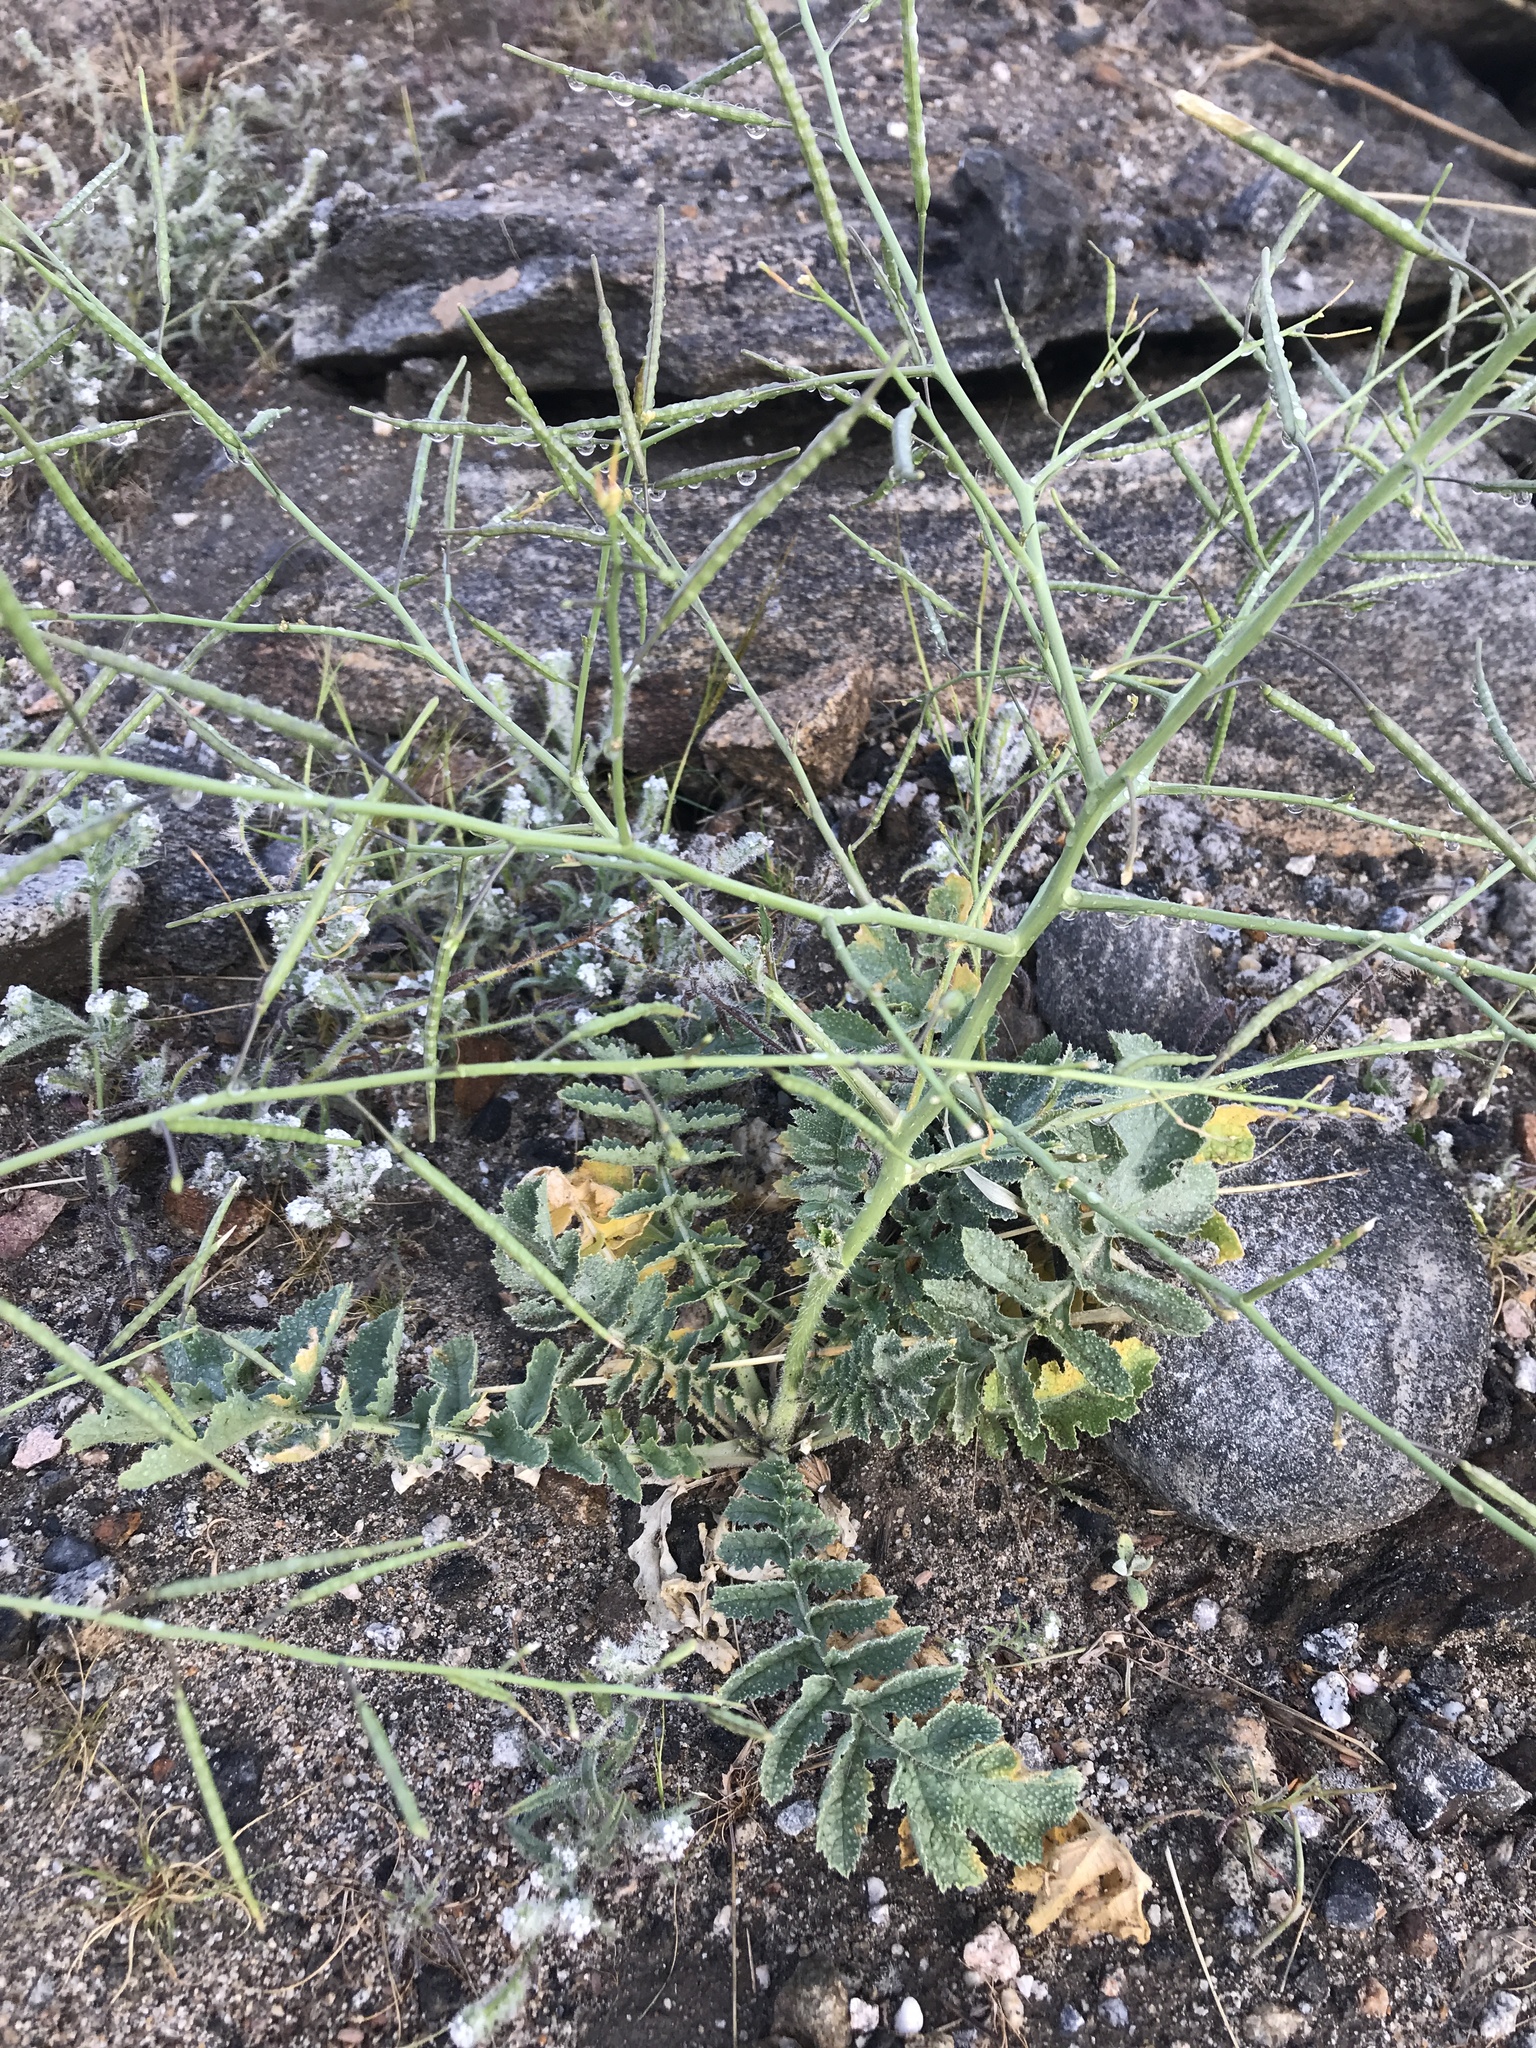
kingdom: Plantae
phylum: Tracheophyta
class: Magnoliopsida
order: Brassicales
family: Brassicaceae
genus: Brassica
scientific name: Brassica tournefortii
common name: Pale cabbage
